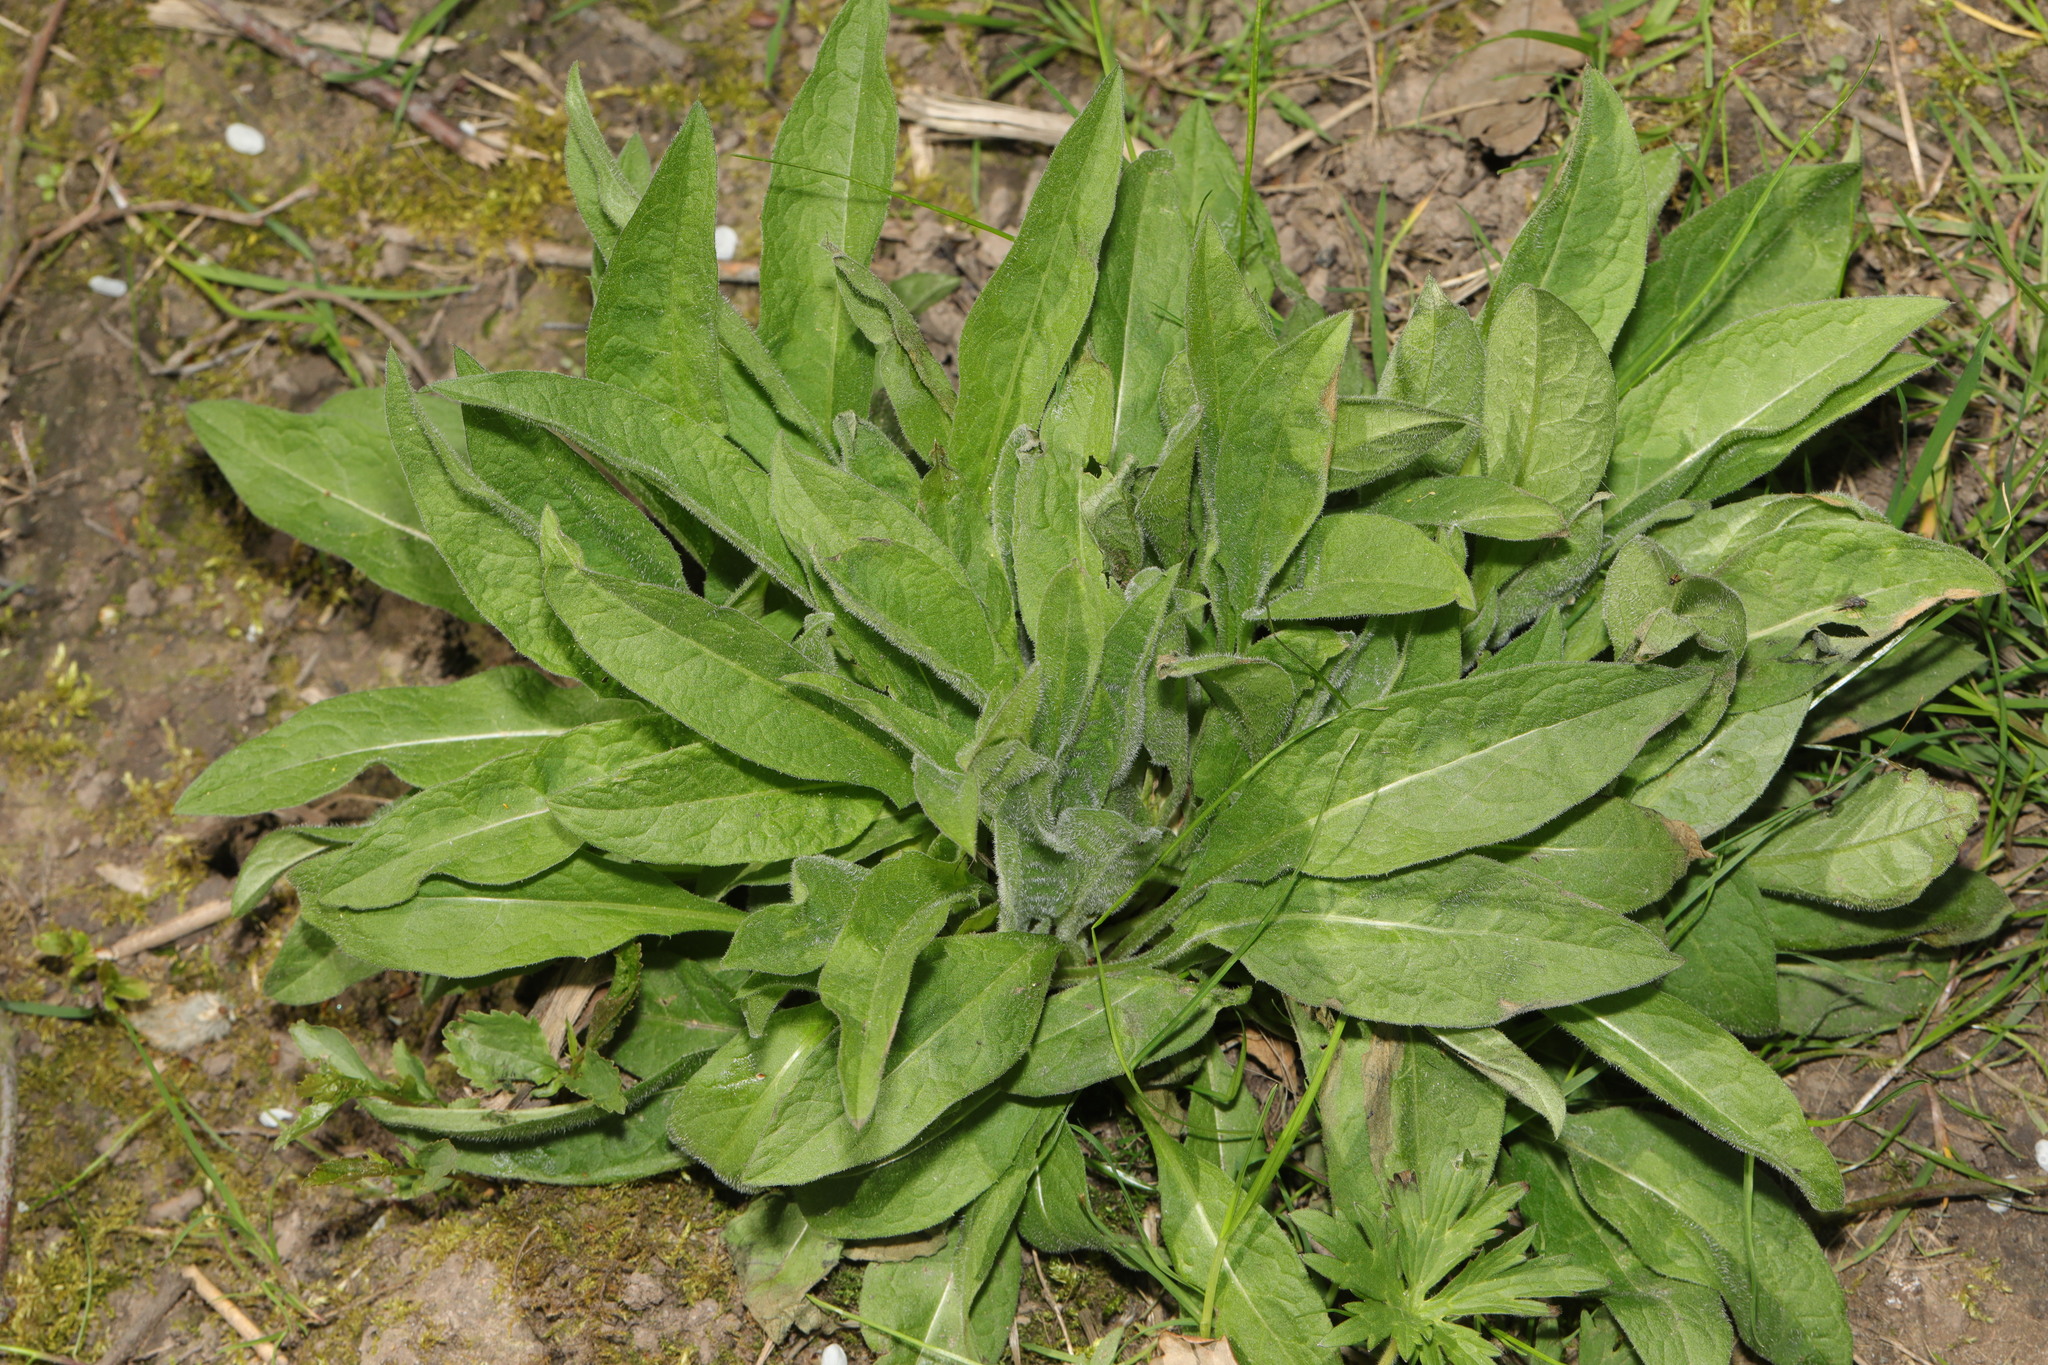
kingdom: Plantae
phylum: Tracheophyta
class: Magnoliopsida
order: Asterales
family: Asteraceae
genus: Centaurea
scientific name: Centaurea nigra
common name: Lesser knapweed
